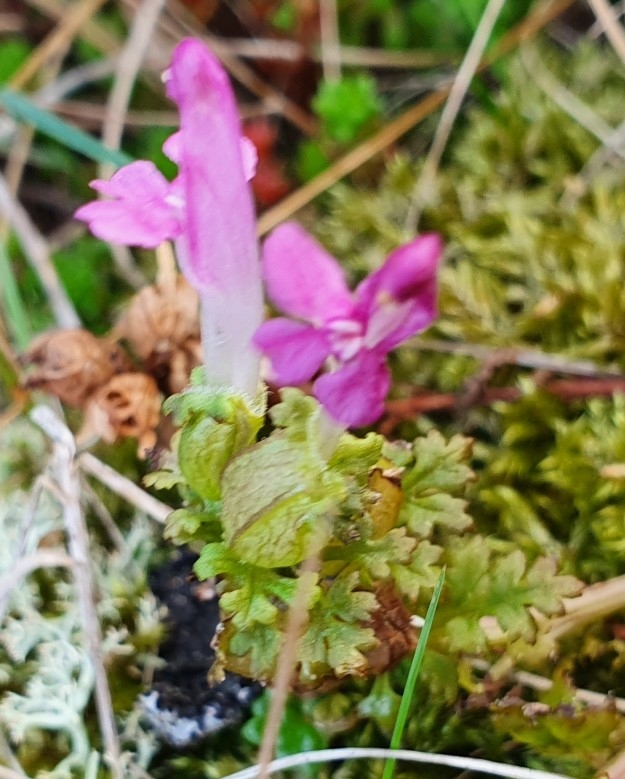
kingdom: Plantae
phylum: Tracheophyta
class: Magnoliopsida
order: Lamiales
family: Orobanchaceae
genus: Pedicularis
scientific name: Pedicularis sylvatica
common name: Lousewort
